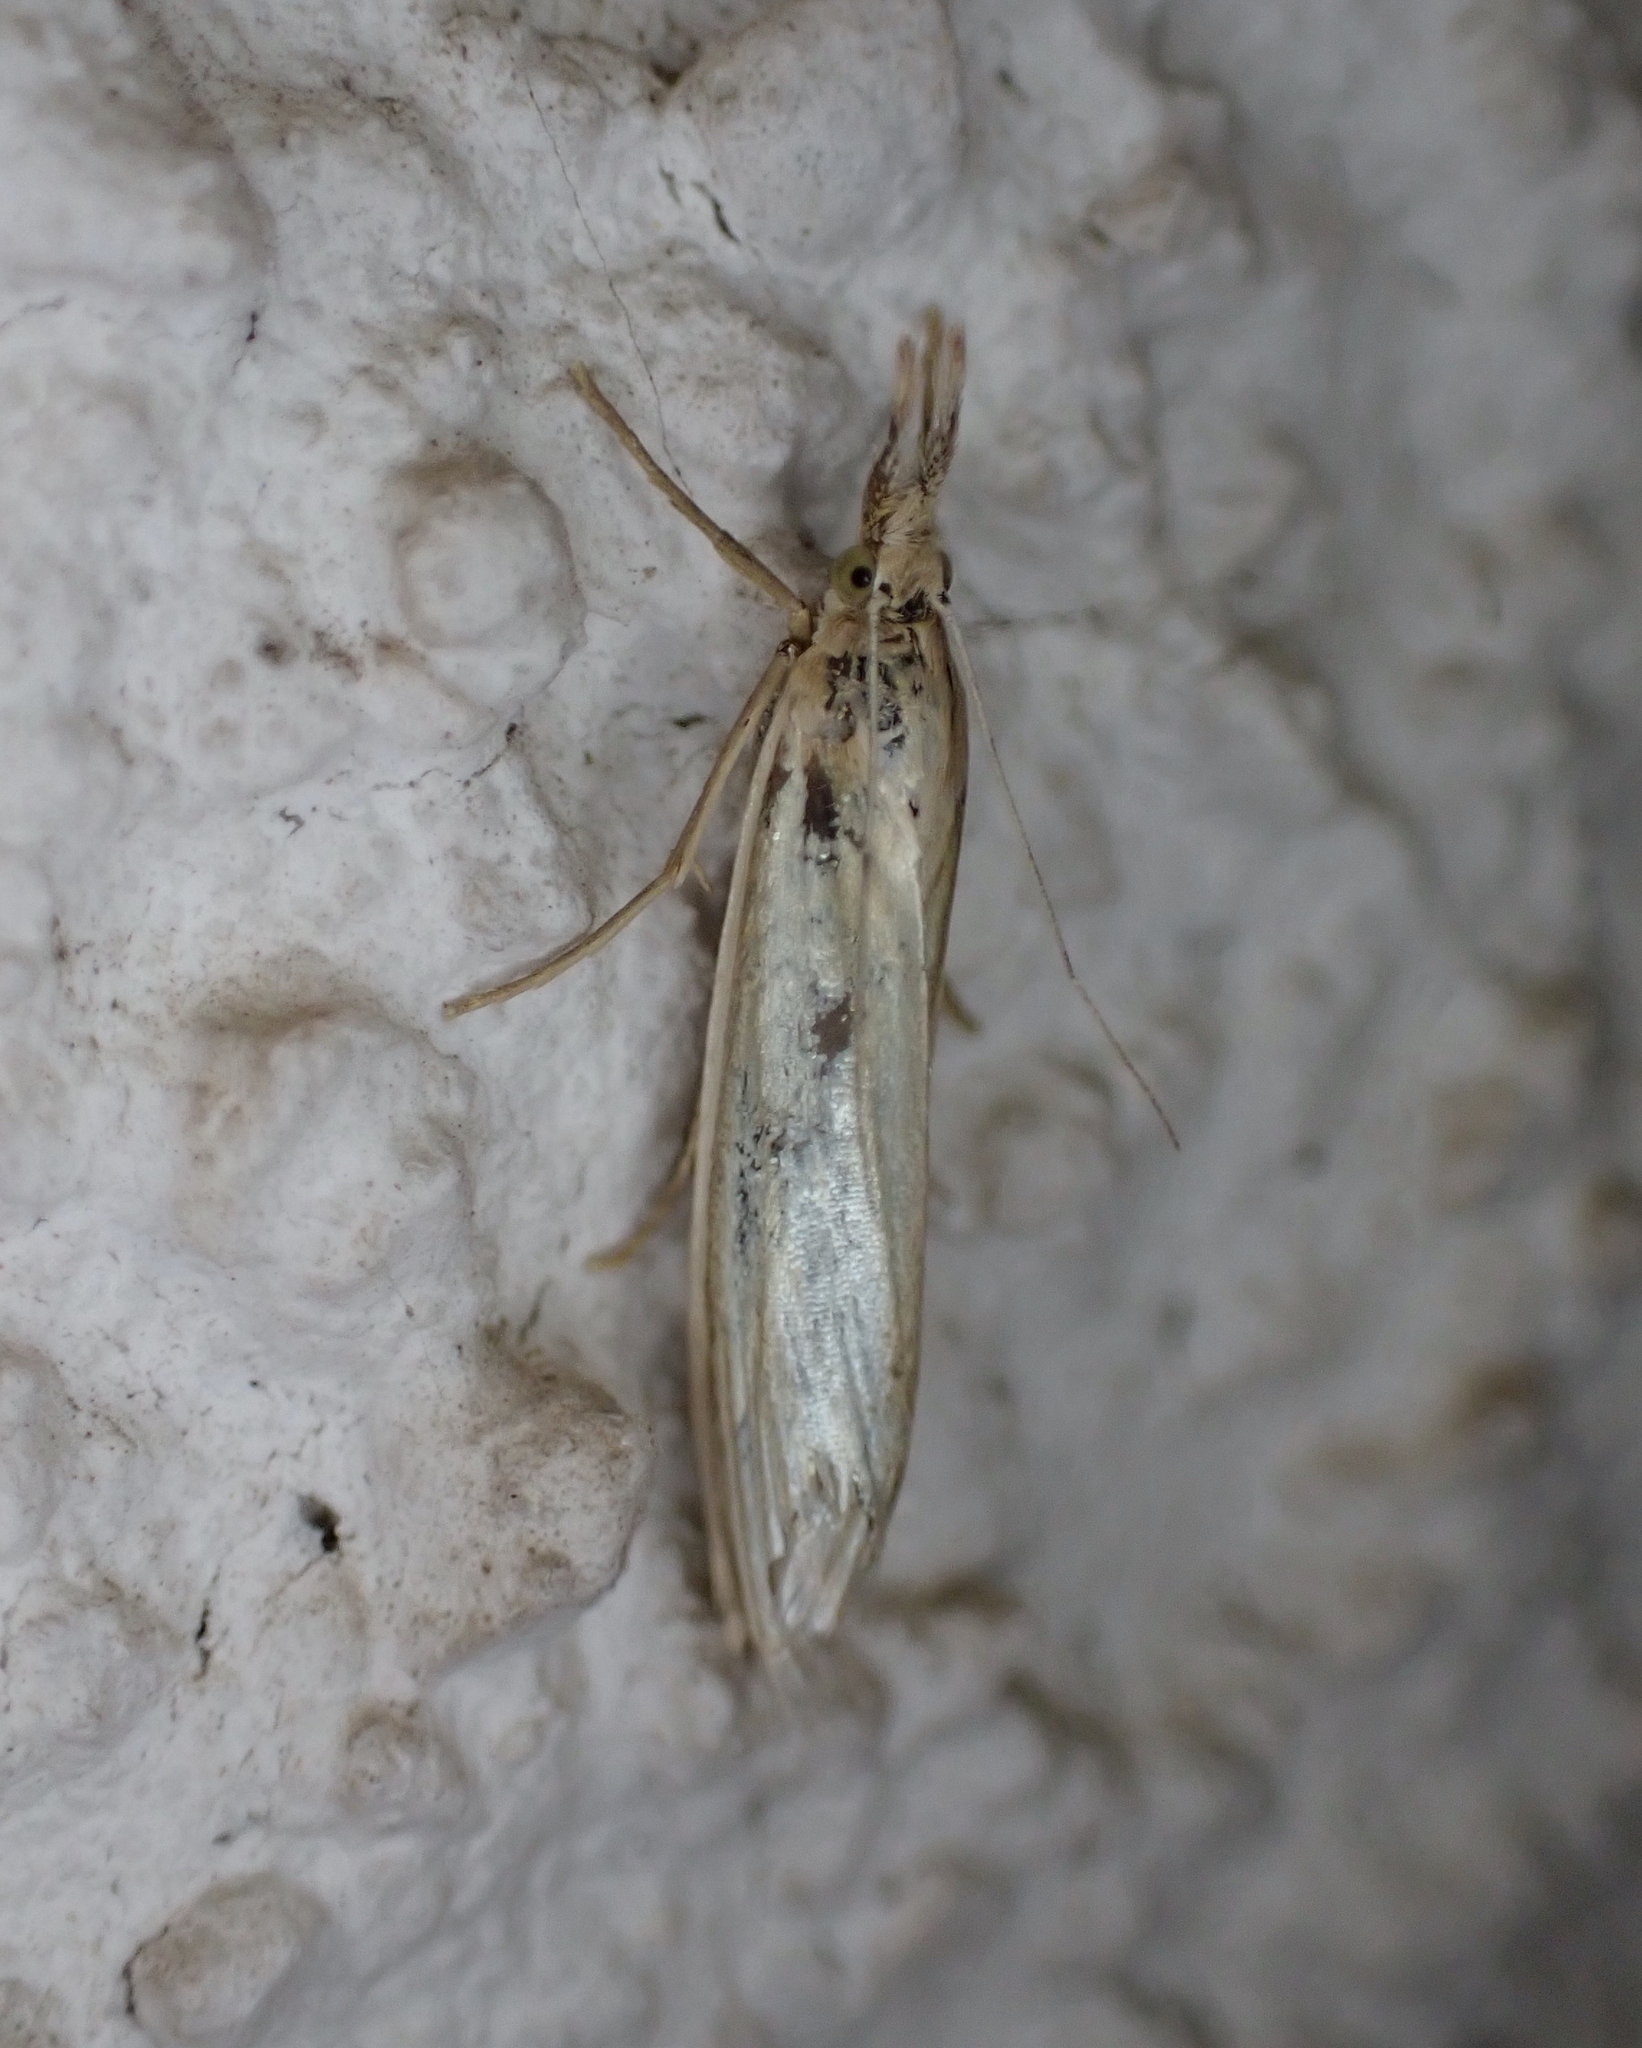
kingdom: Animalia
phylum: Arthropoda
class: Insecta
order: Lepidoptera
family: Crambidae
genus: Crambus
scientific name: Crambus perlellus
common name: Yellow satin veneer
